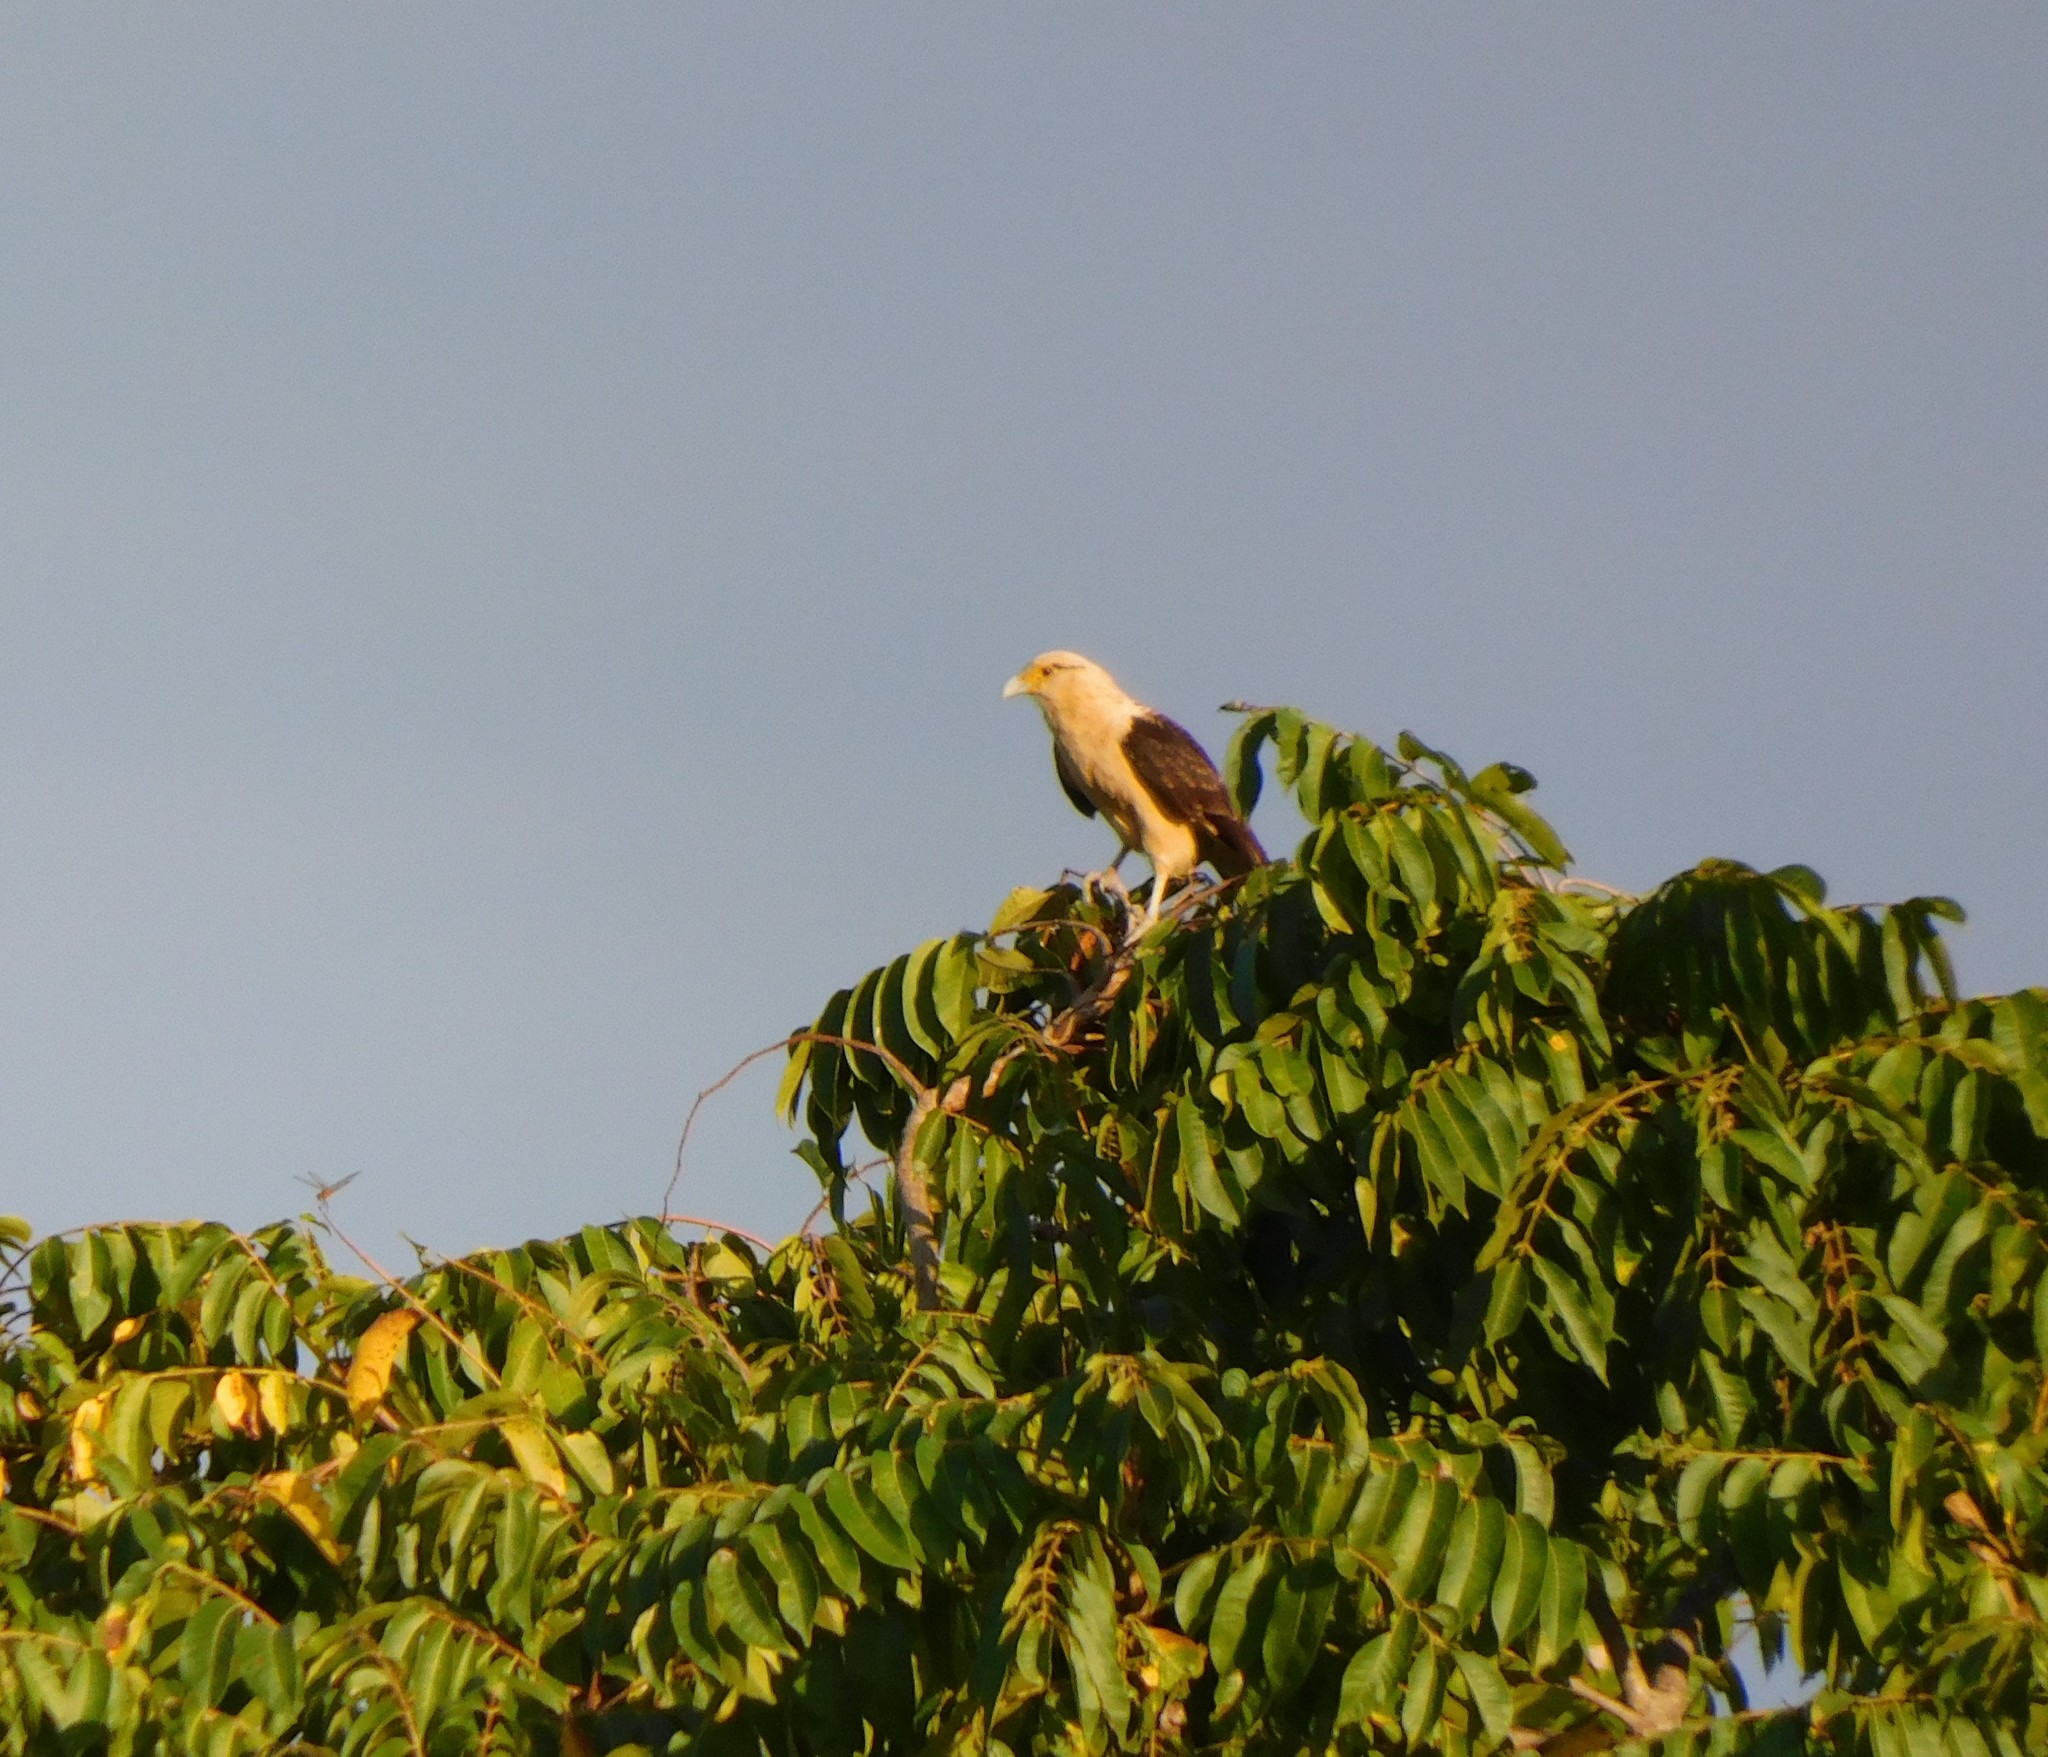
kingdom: Animalia
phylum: Chordata
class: Aves
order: Falconiformes
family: Falconidae
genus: Daptrius
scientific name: Daptrius
